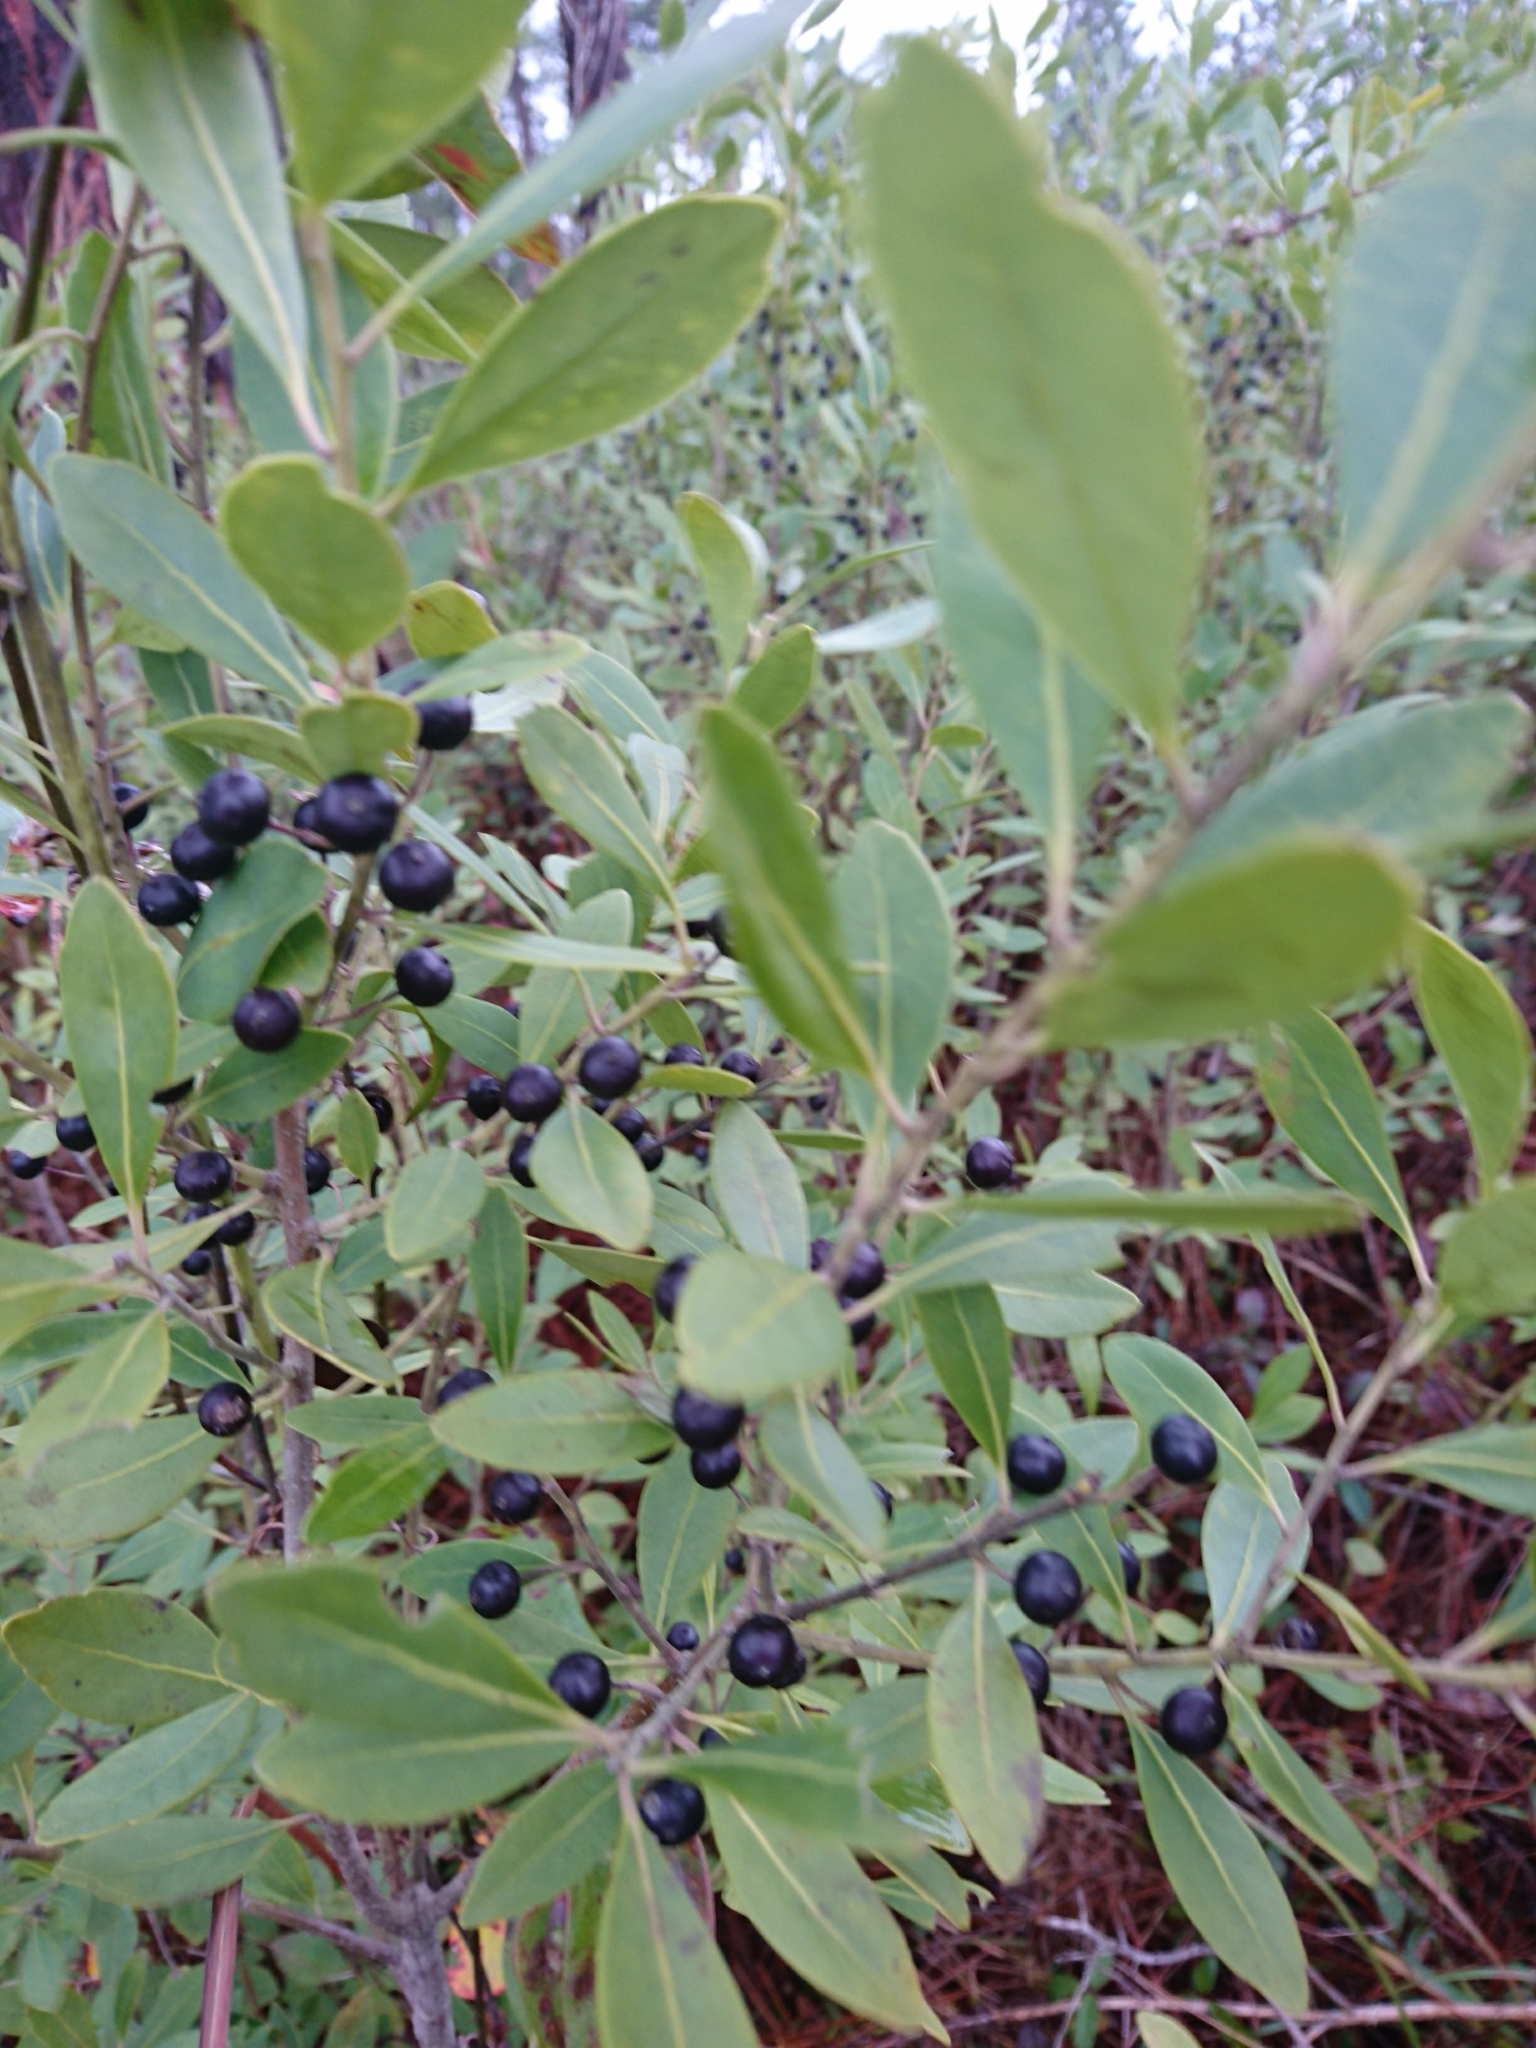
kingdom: Plantae
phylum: Tracheophyta
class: Magnoliopsida
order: Aquifoliales
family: Aquifoliaceae
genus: Ilex
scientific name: Ilex glabra
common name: Bitter gallberry
